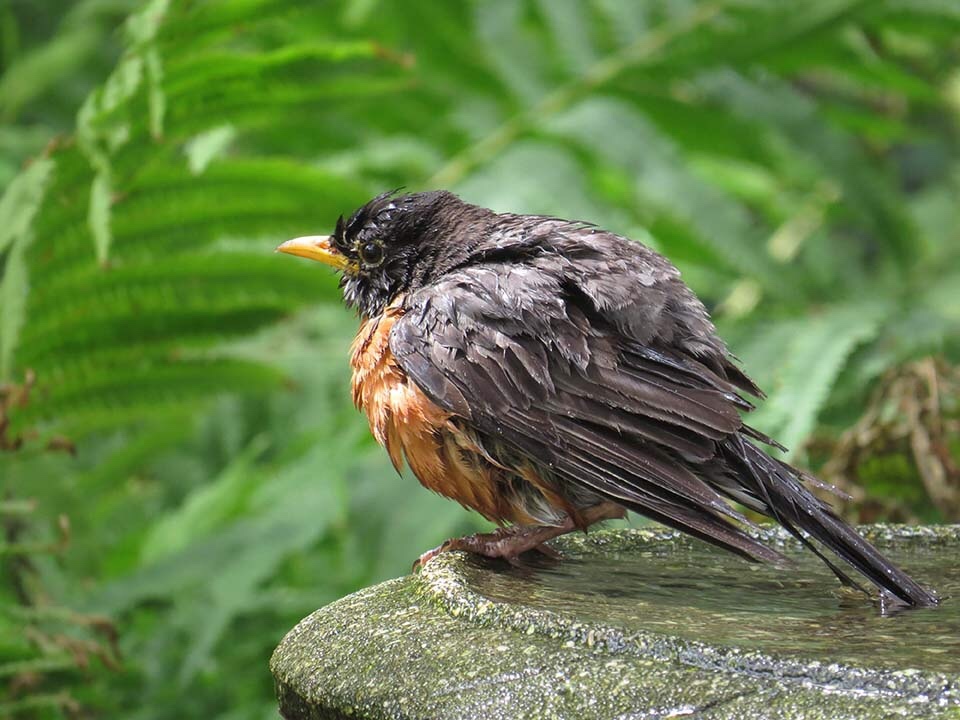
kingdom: Animalia
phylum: Chordata
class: Aves
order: Passeriformes
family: Turdidae
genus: Turdus
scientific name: Turdus migratorius
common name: American robin
